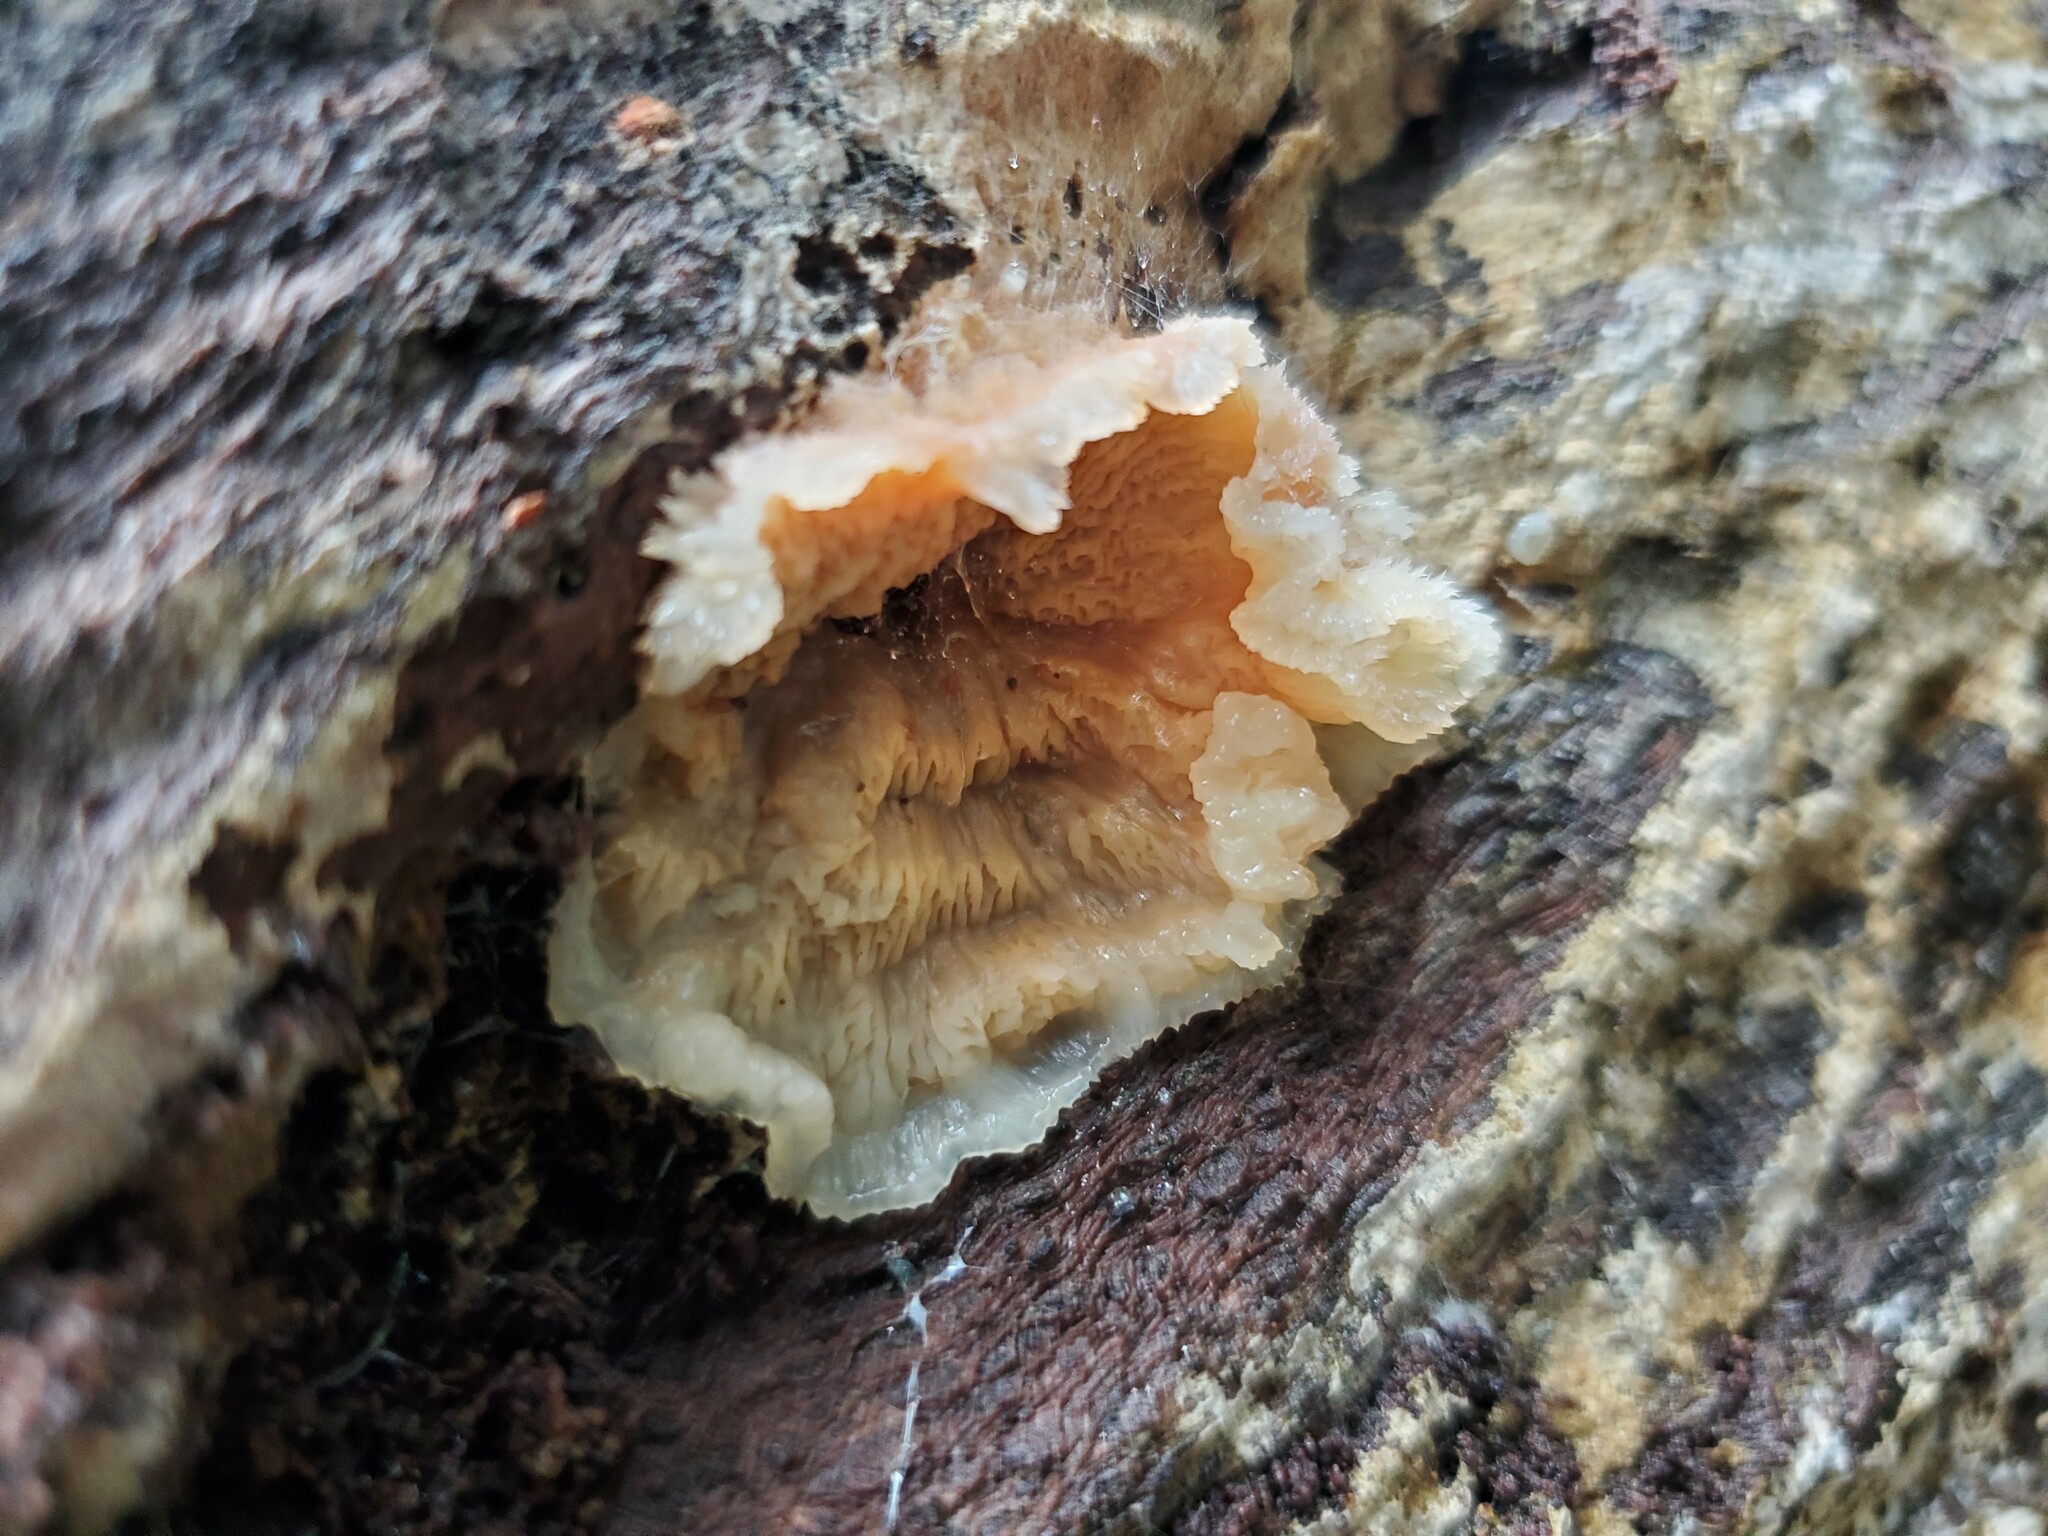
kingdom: Fungi
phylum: Basidiomycota
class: Agaricomycetes
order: Polyporales
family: Meruliaceae
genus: Phlebia
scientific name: Phlebia tremellosa
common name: Jelly rot
